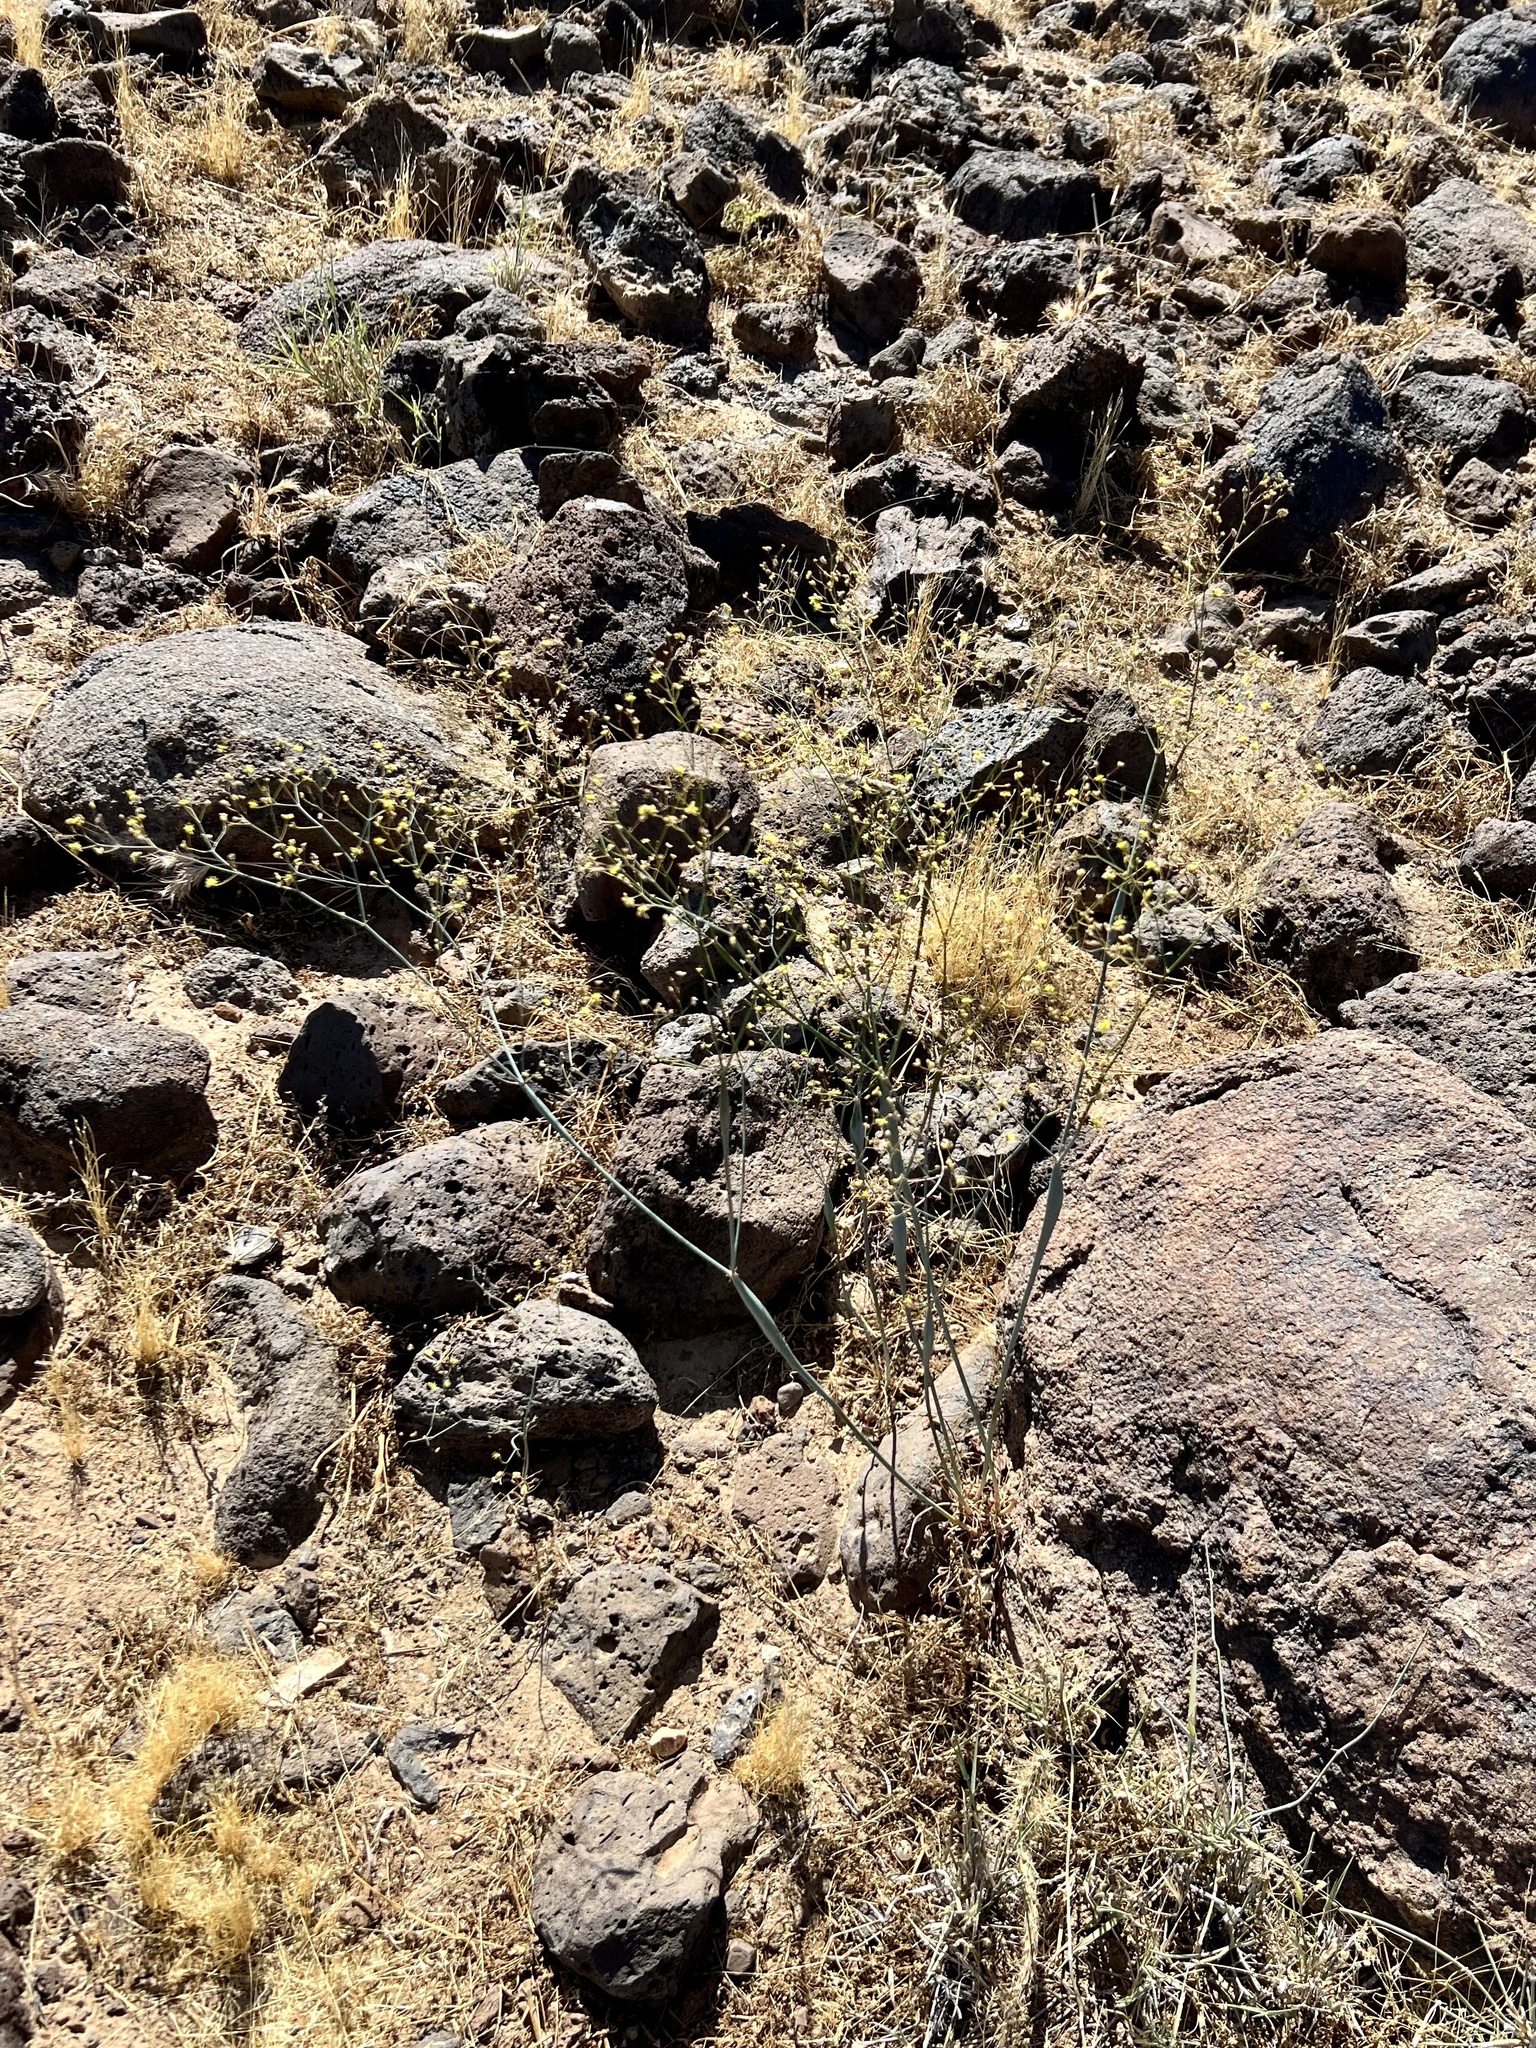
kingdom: Plantae
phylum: Tracheophyta
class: Magnoliopsida
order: Caryophyllales
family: Polygonaceae
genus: Eriogonum
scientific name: Eriogonum inflatum
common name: Desert trumpet
